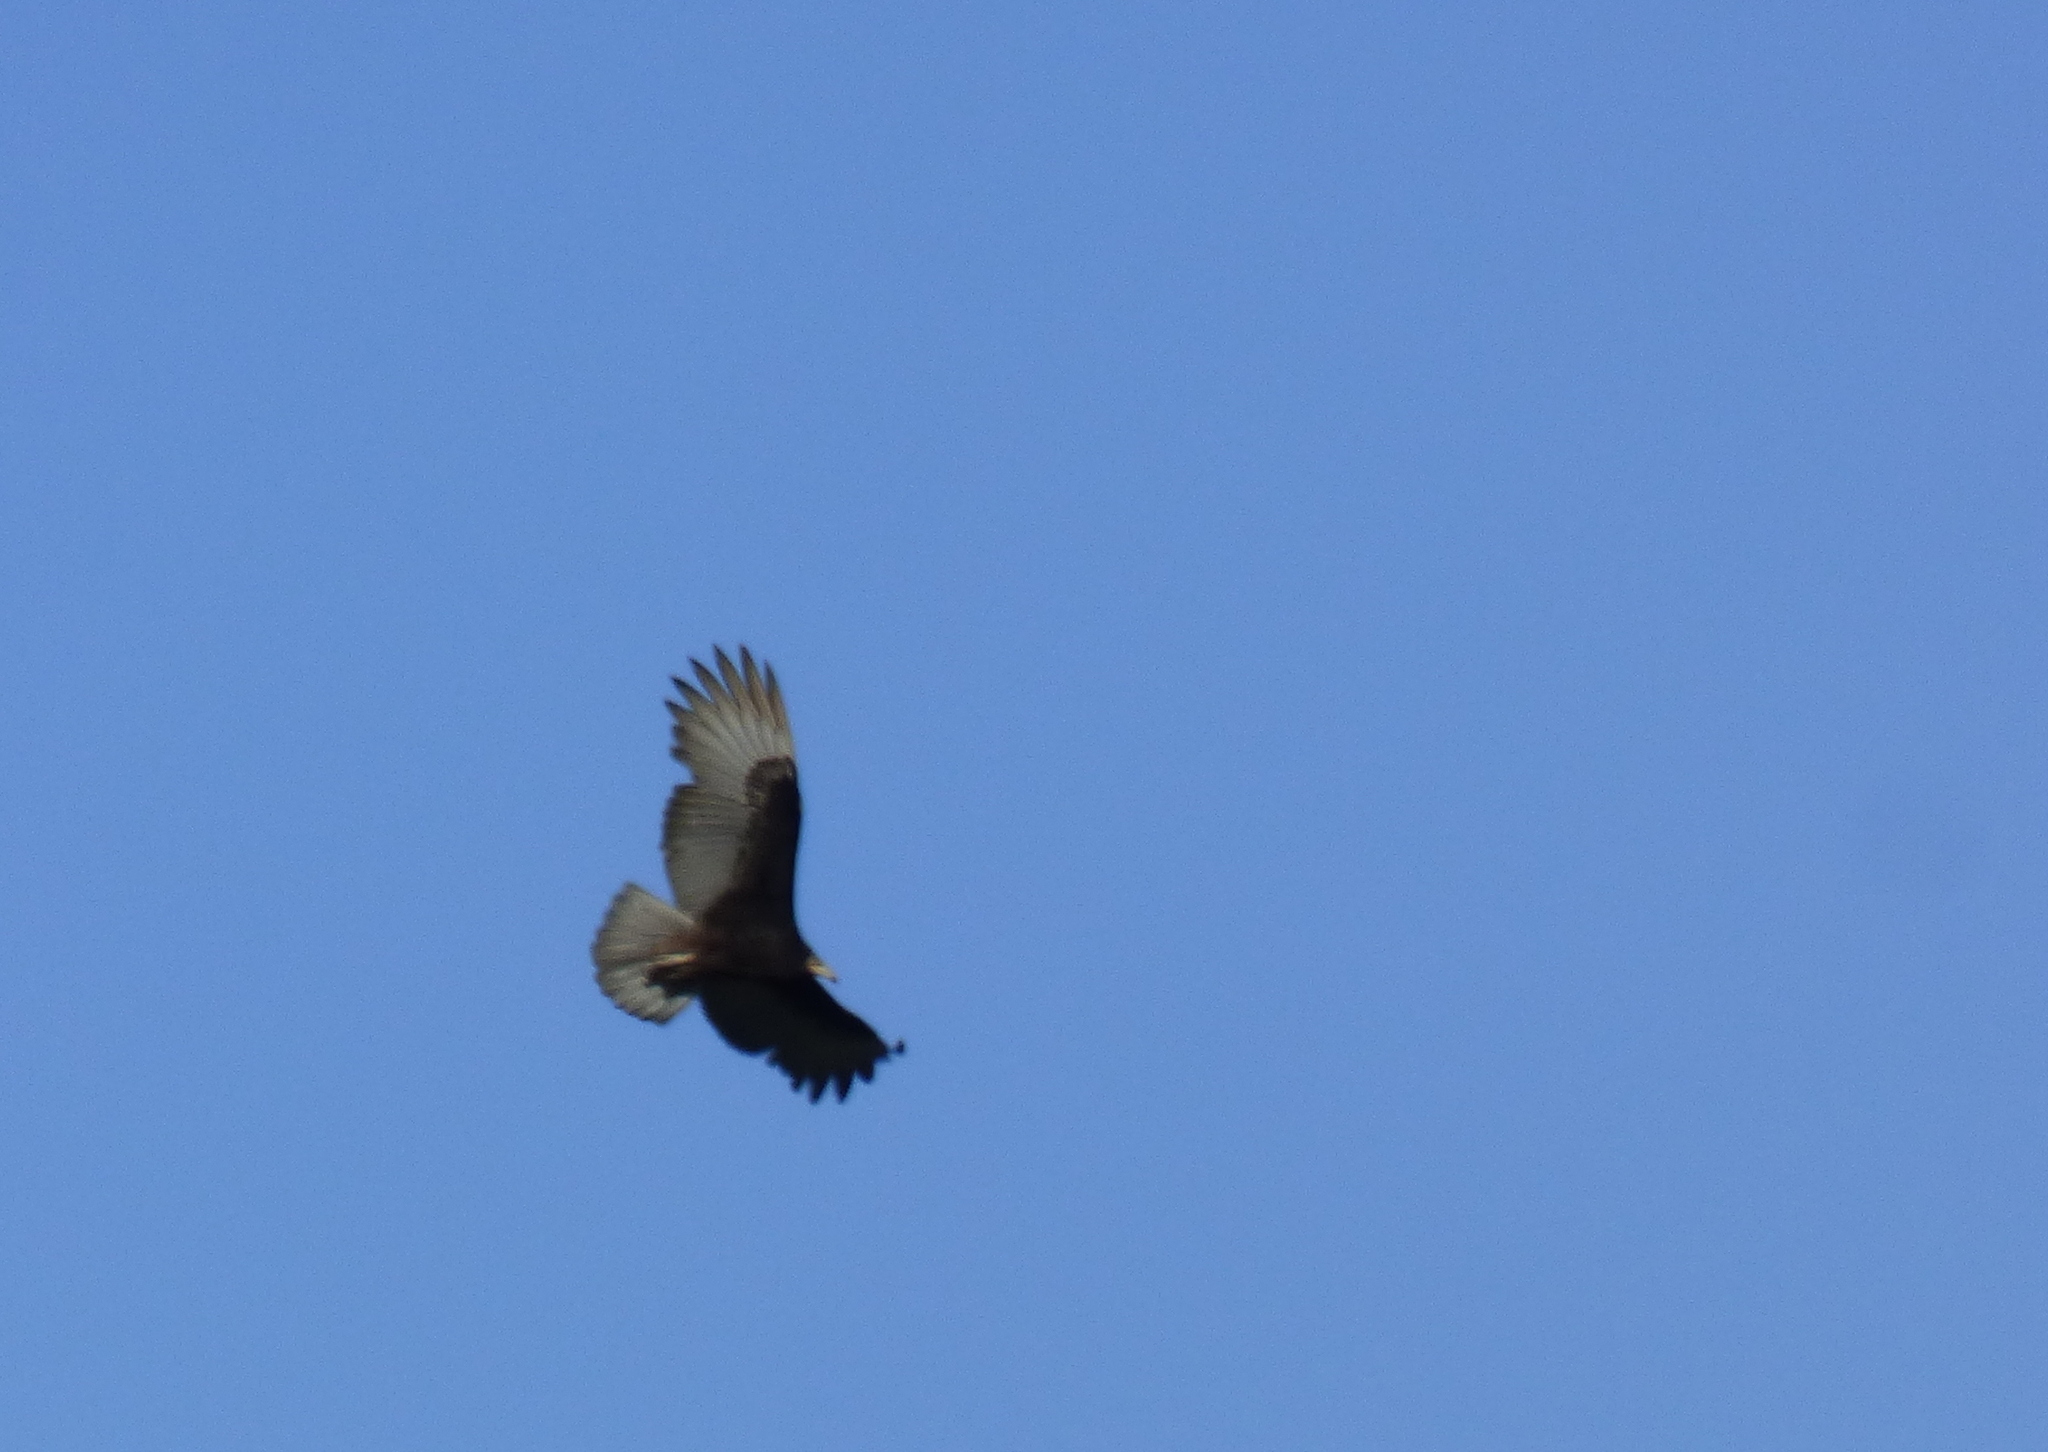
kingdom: Animalia
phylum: Chordata
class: Aves
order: Accipitriformes
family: Cathartidae
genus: Cathartes
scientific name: Cathartes burrovianus
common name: Lesser yellow-headed vulture
